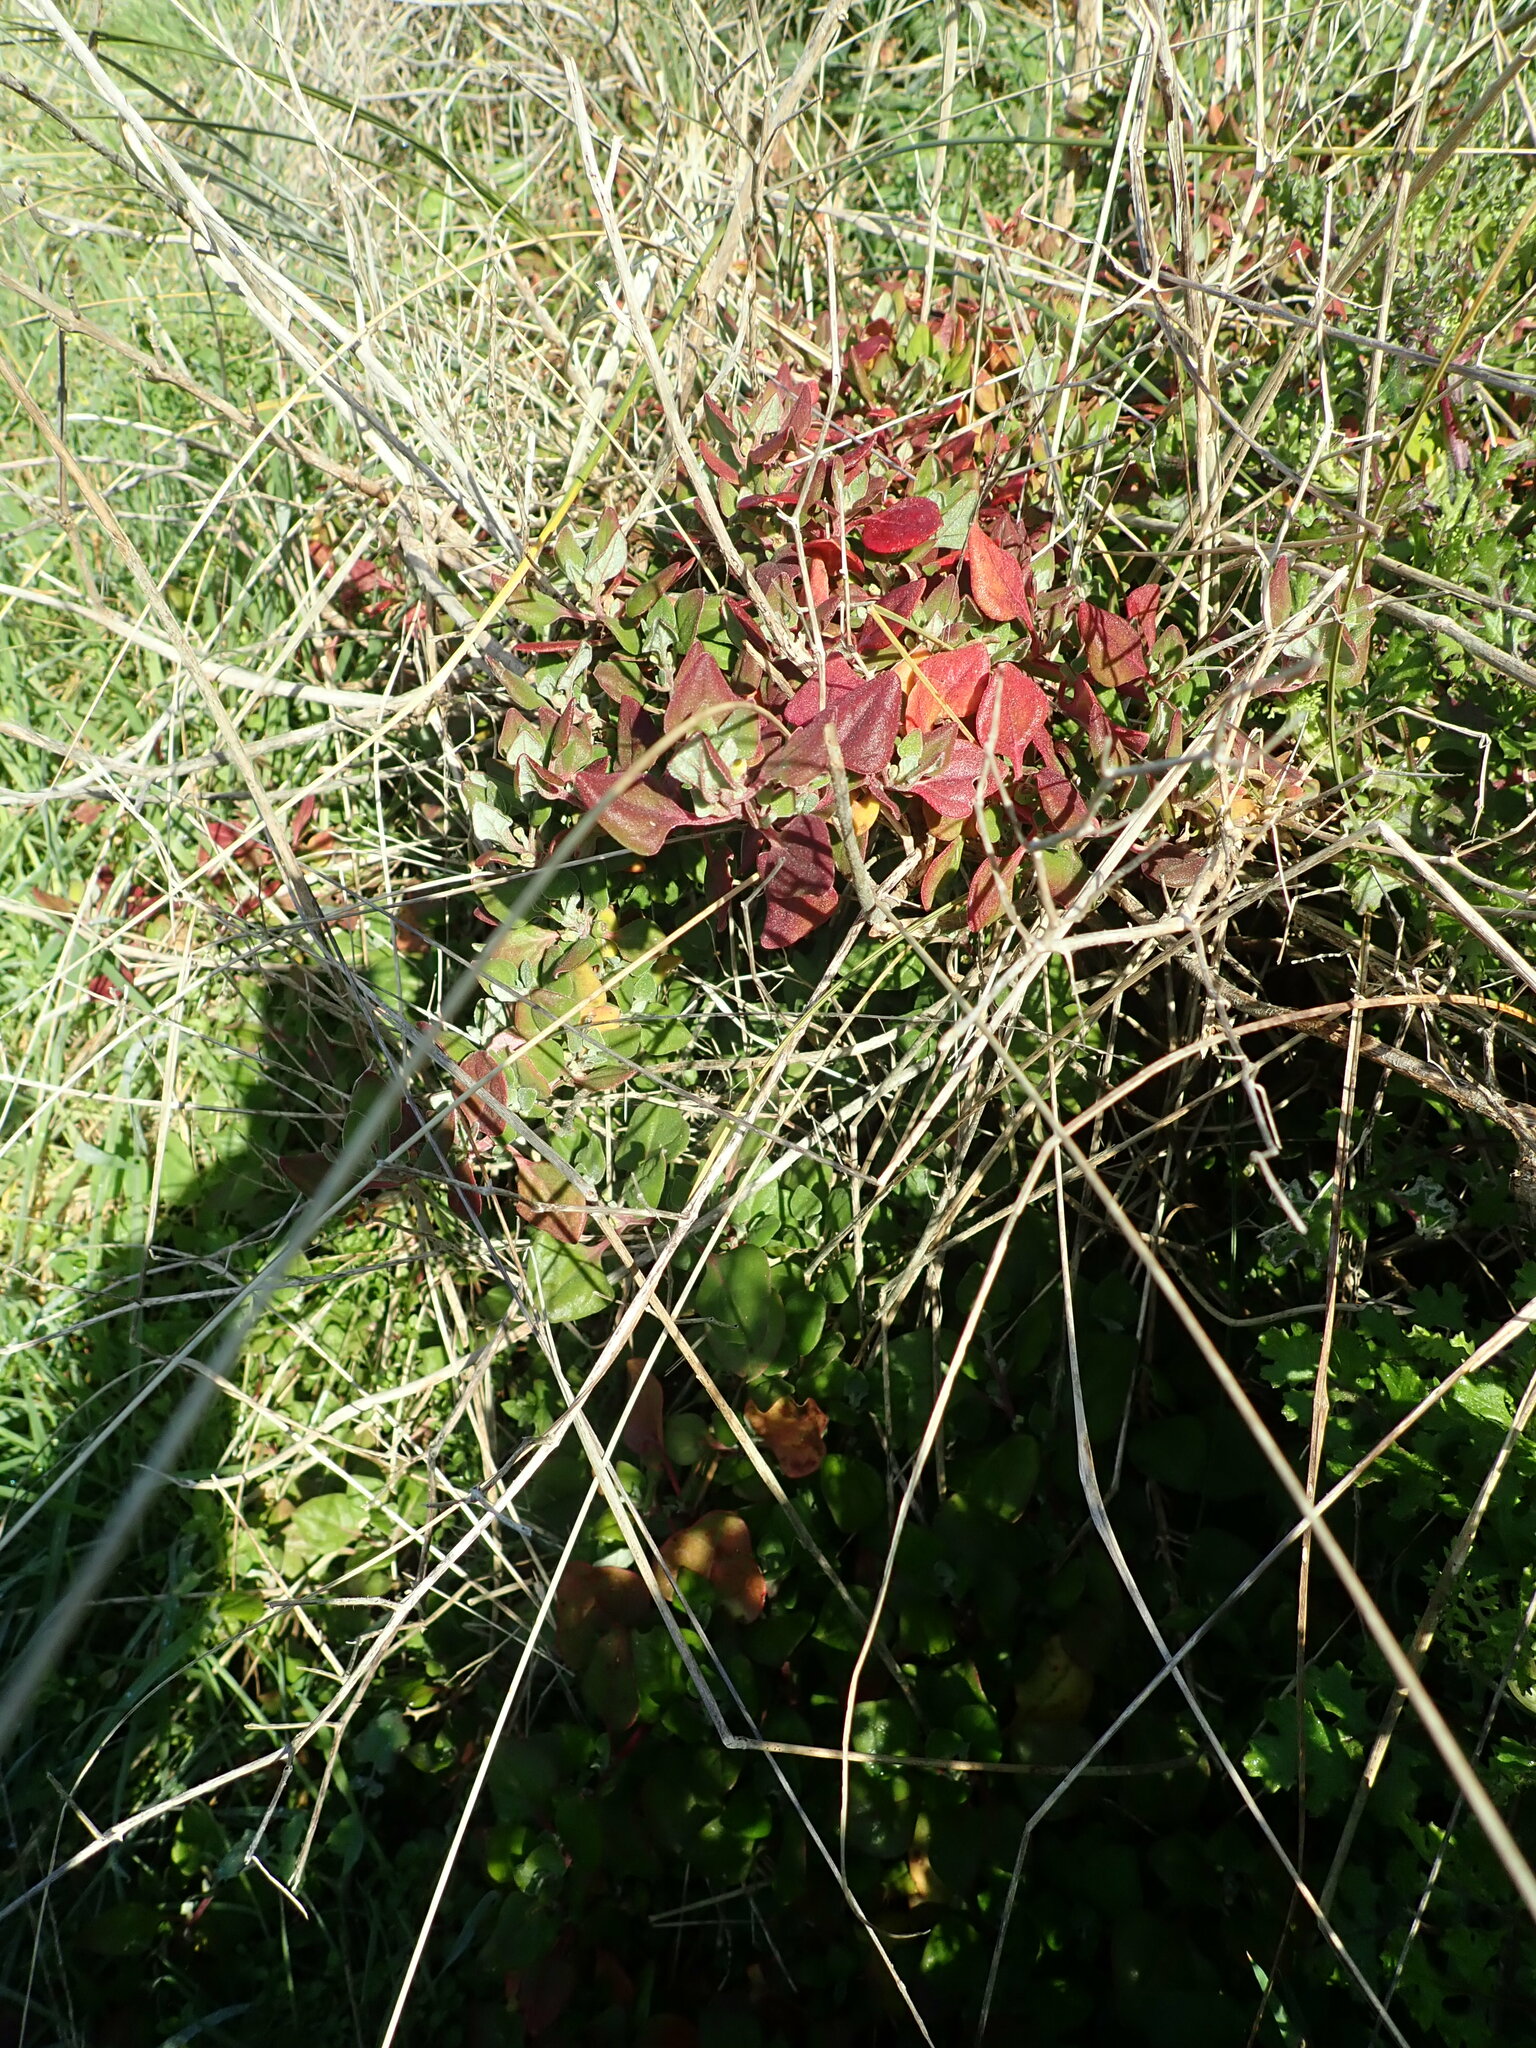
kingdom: Plantae
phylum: Tracheophyta
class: Magnoliopsida
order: Caryophyllales
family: Aizoaceae
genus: Tetragonia
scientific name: Tetragonia implexicoma
